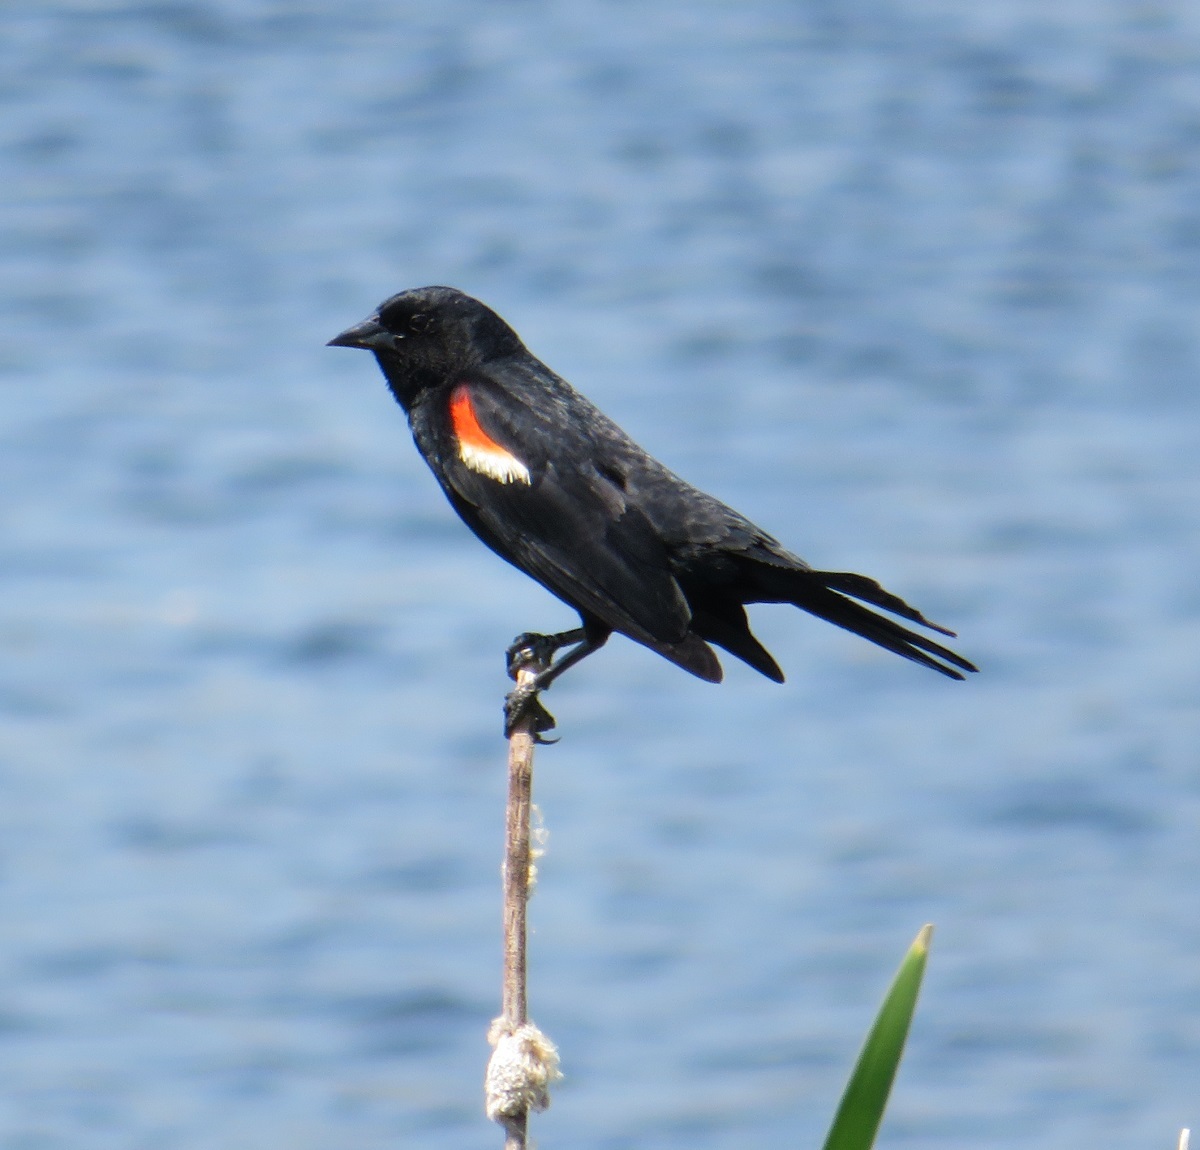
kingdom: Animalia
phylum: Chordata
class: Aves
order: Passeriformes
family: Icteridae
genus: Agelaius
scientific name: Agelaius phoeniceus
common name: Red-winged blackbird
